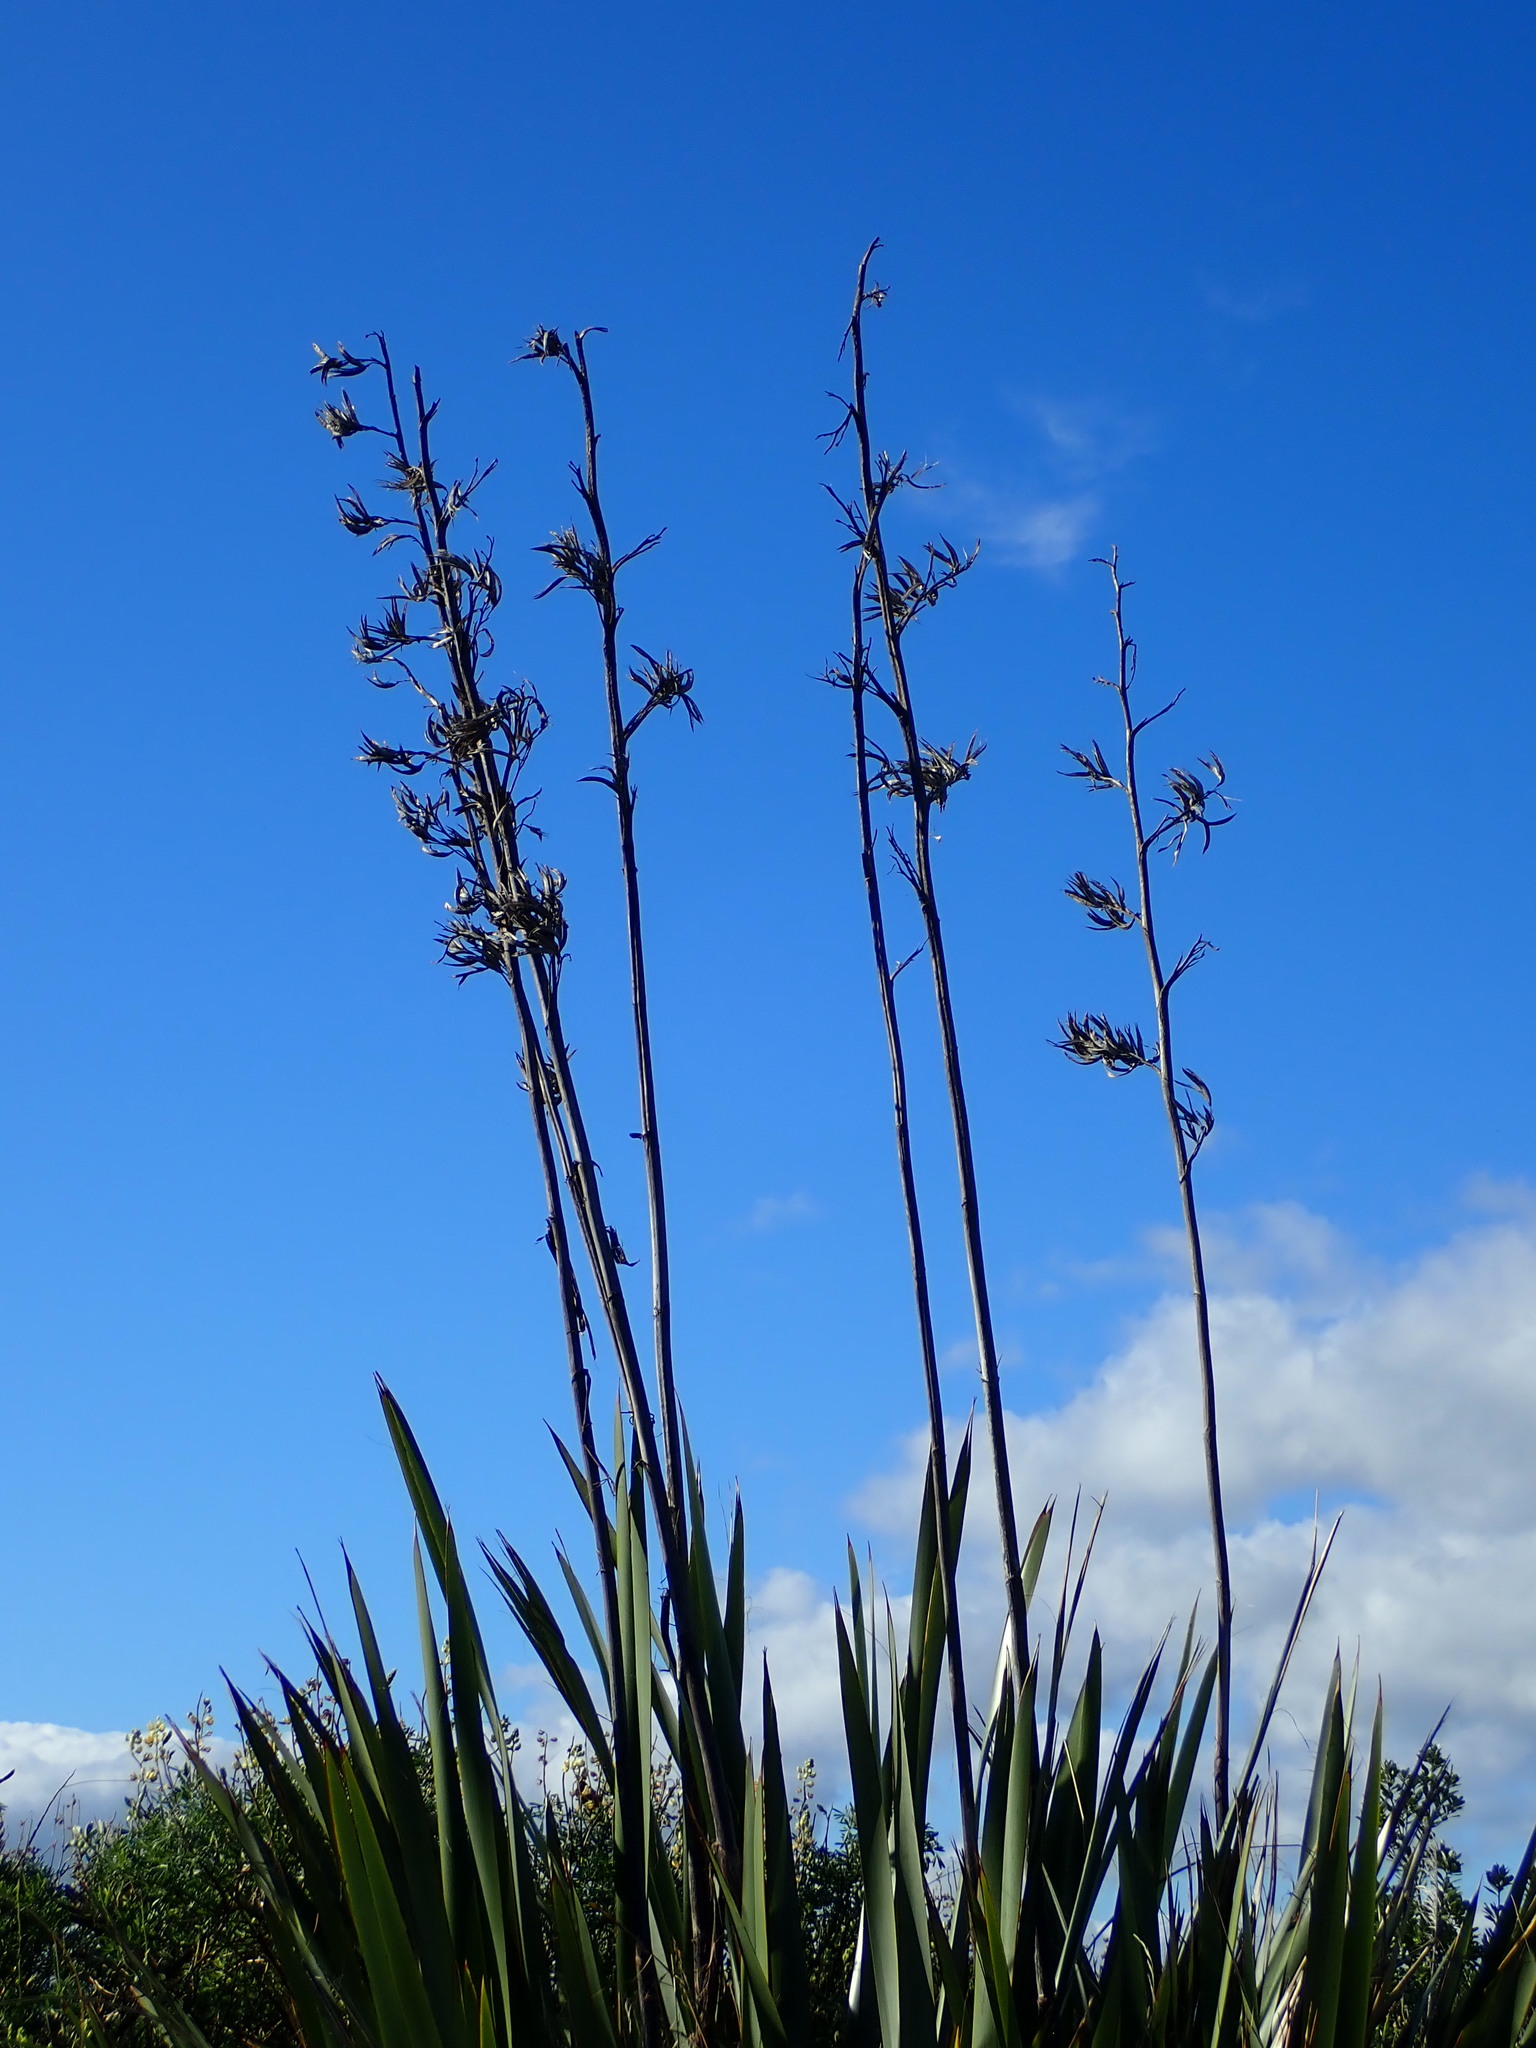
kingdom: Plantae
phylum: Tracheophyta
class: Liliopsida
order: Asparagales
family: Asphodelaceae
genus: Phormium
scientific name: Phormium tenax
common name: New zealand flax
